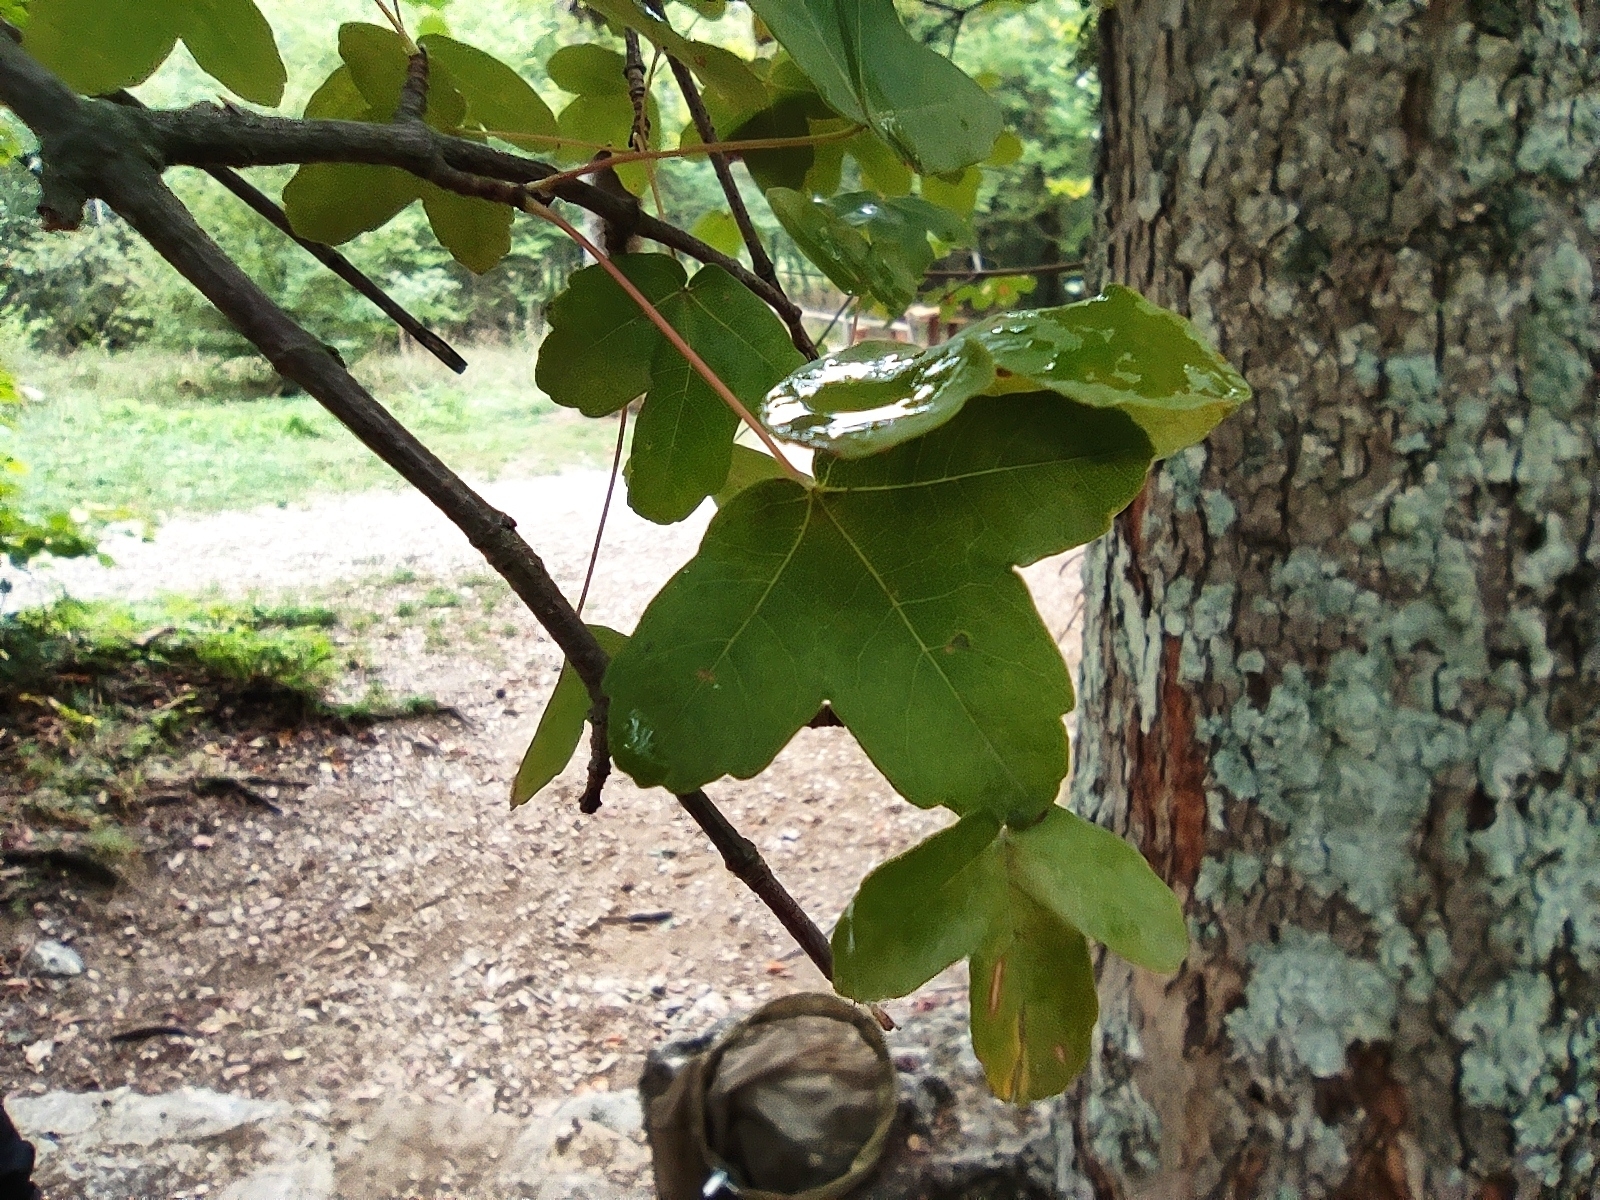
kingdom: Plantae
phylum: Tracheophyta
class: Magnoliopsida
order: Sapindales
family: Sapindaceae
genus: Acer
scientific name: Acer monspessulanum
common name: Montpellier maple
